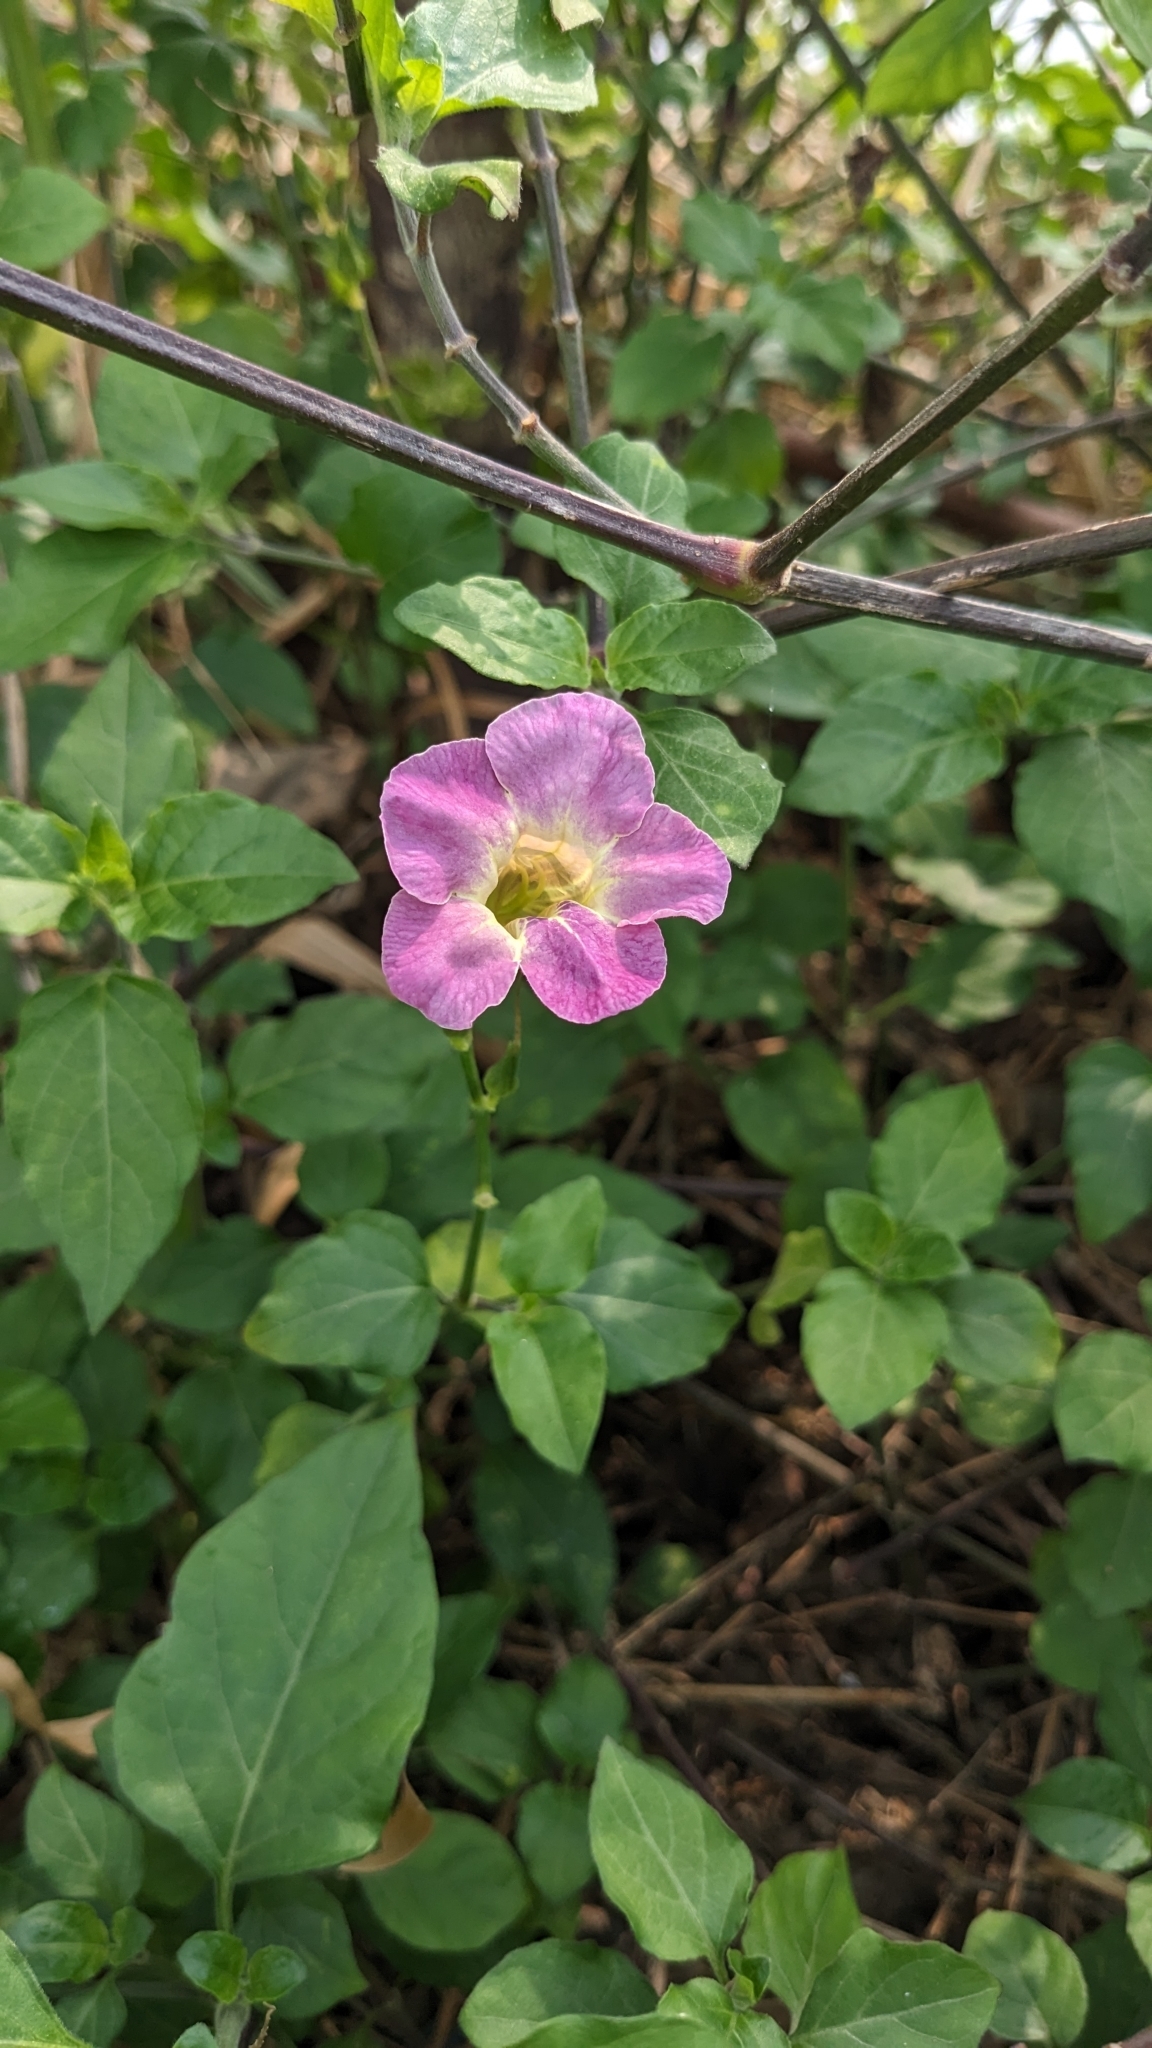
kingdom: Plantae
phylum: Tracheophyta
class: Magnoliopsida
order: Lamiales
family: Acanthaceae
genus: Asystasia
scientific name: Asystasia gangetica
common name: Chinese violet
